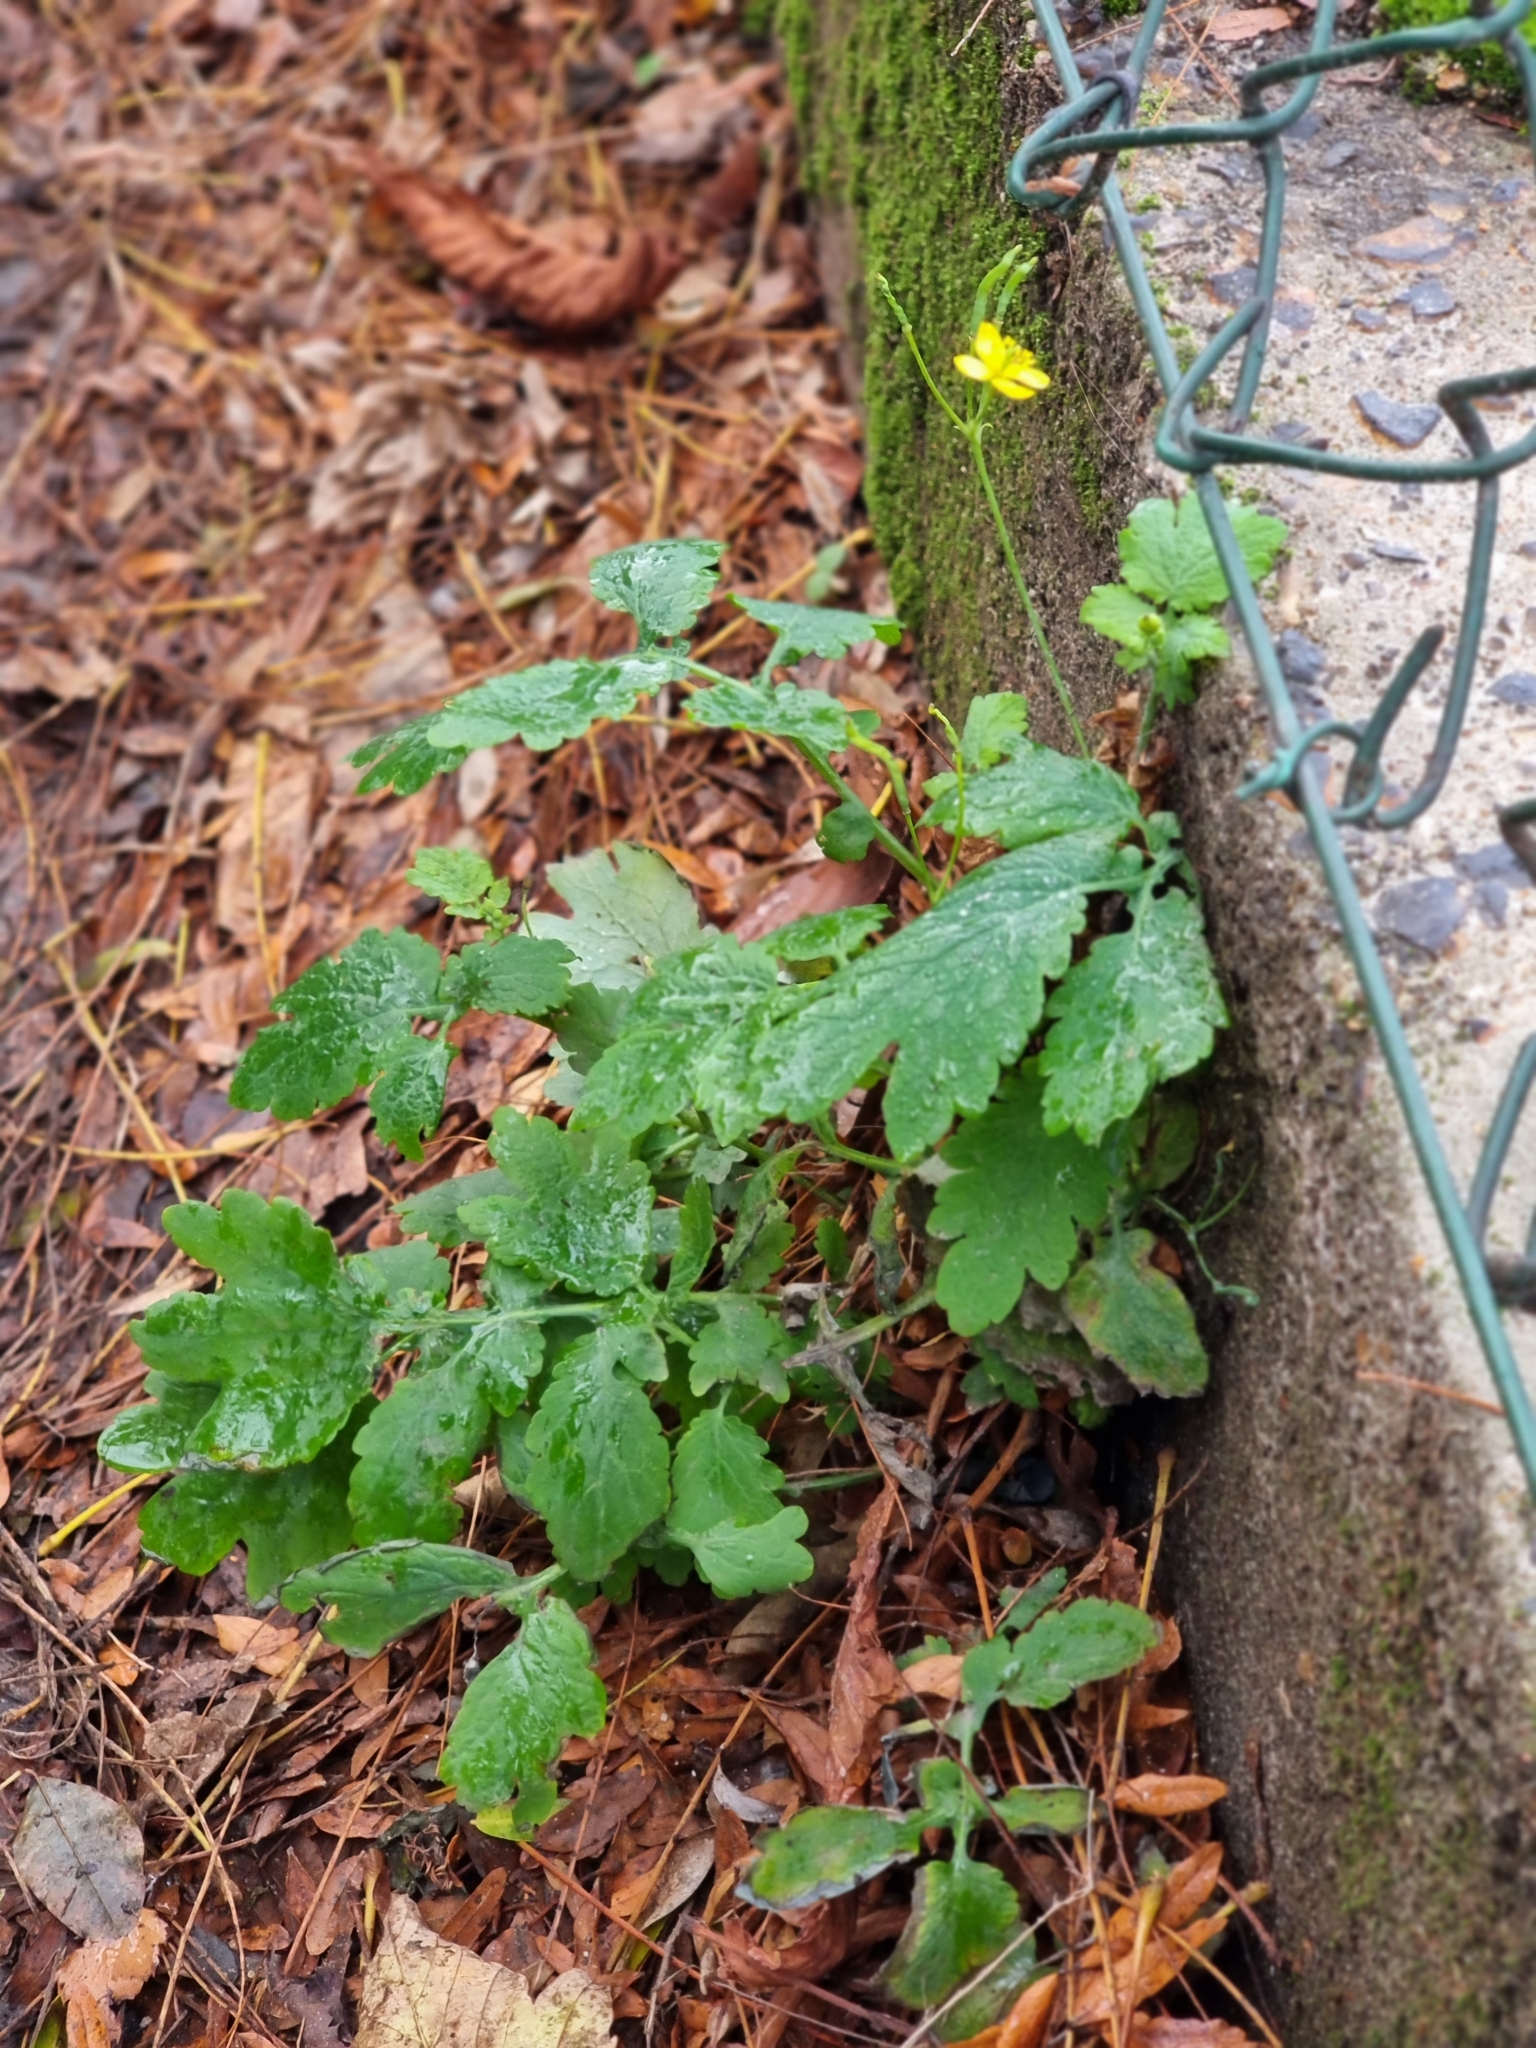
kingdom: Plantae
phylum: Tracheophyta
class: Magnoliopsida
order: Ranunculales
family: Papaveraceae
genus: Chelidonium
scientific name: Chelidonium majus
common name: Greater celandine
